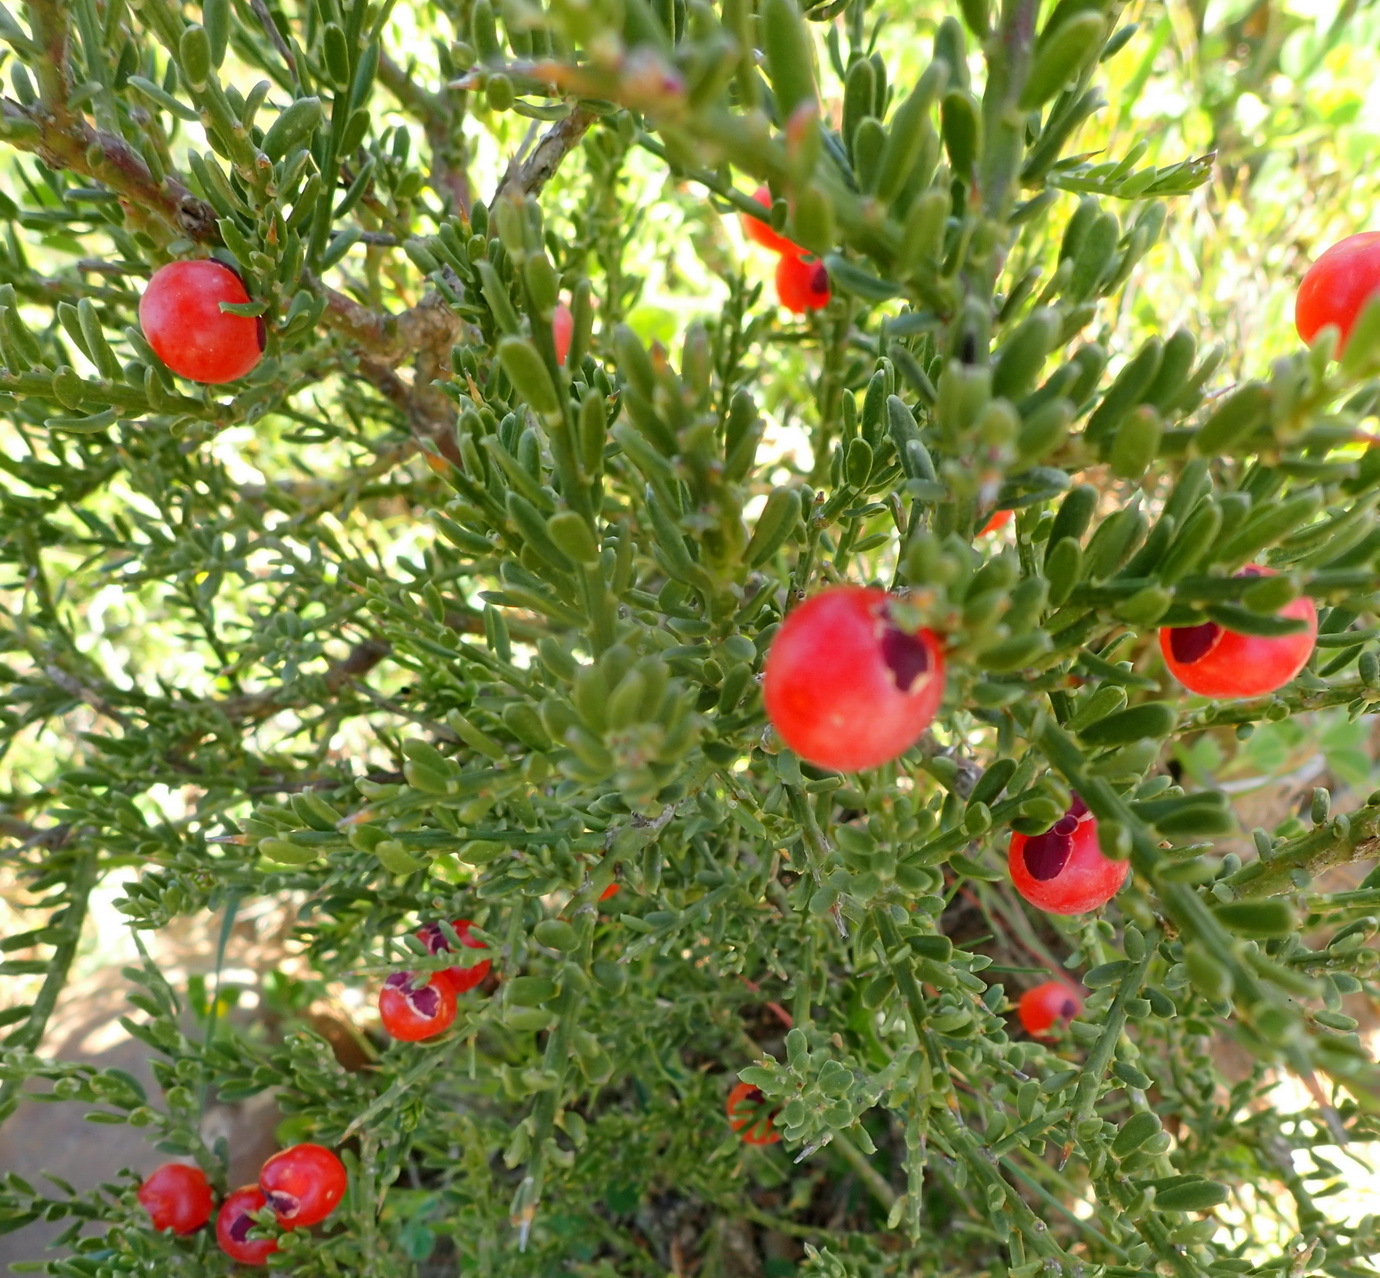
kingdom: Plantae
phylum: Tracheophyta
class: Magnoliopsida
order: Fabales
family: Polygalaceae
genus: Muraltia
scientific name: Muraltia spinosa
